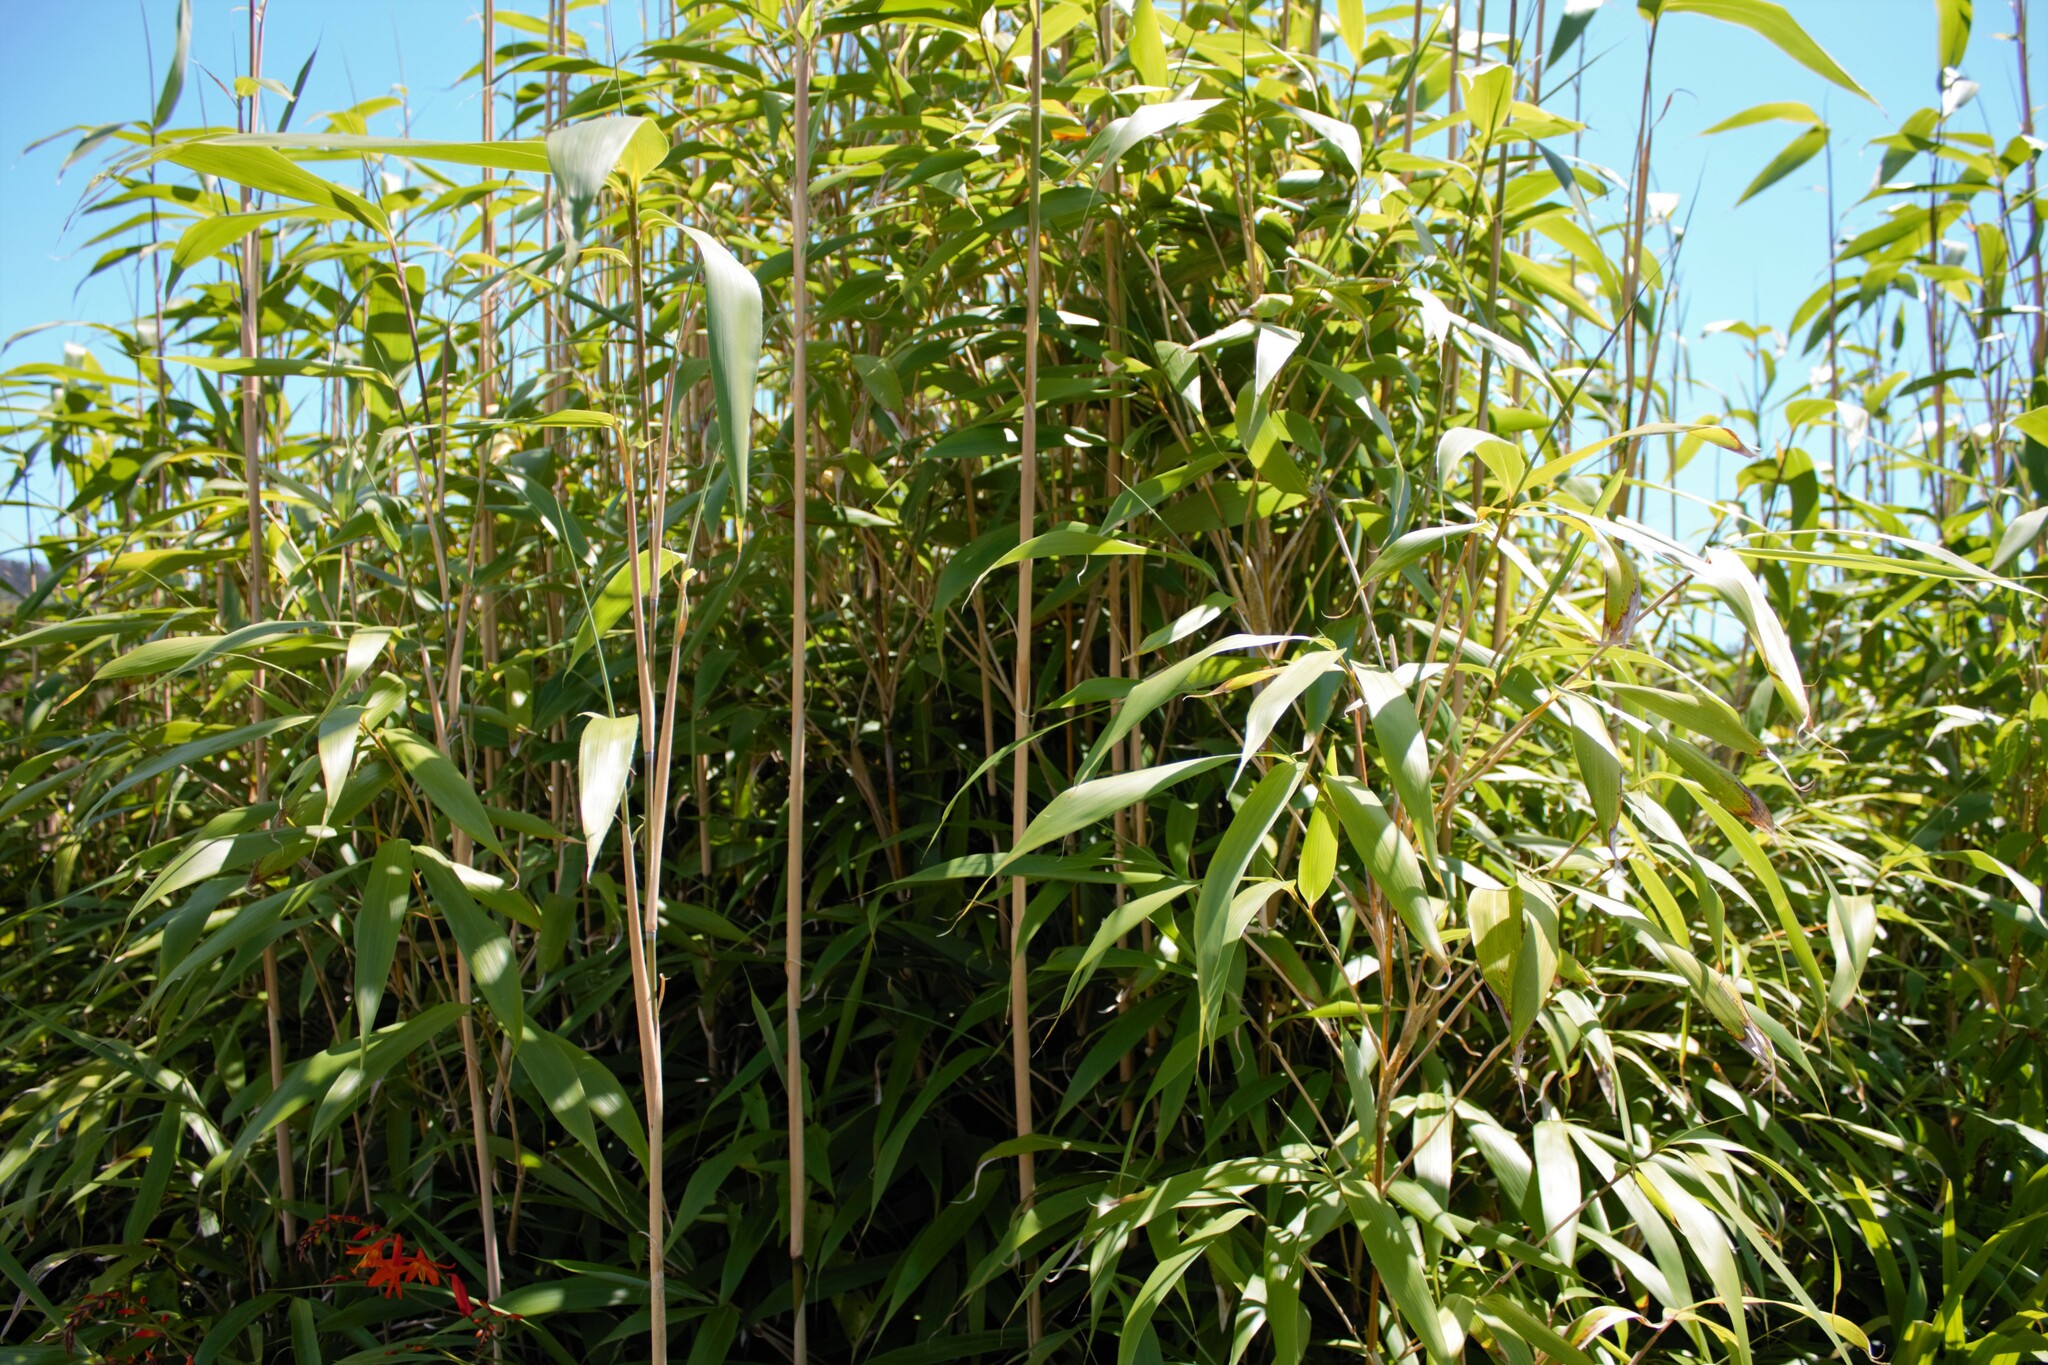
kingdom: Plantae
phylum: Tracheophyta
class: Liliopsida
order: Poales
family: Poaceae
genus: Pseudosasa
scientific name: Pseudosasa japonica
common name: Arrow bamboo
